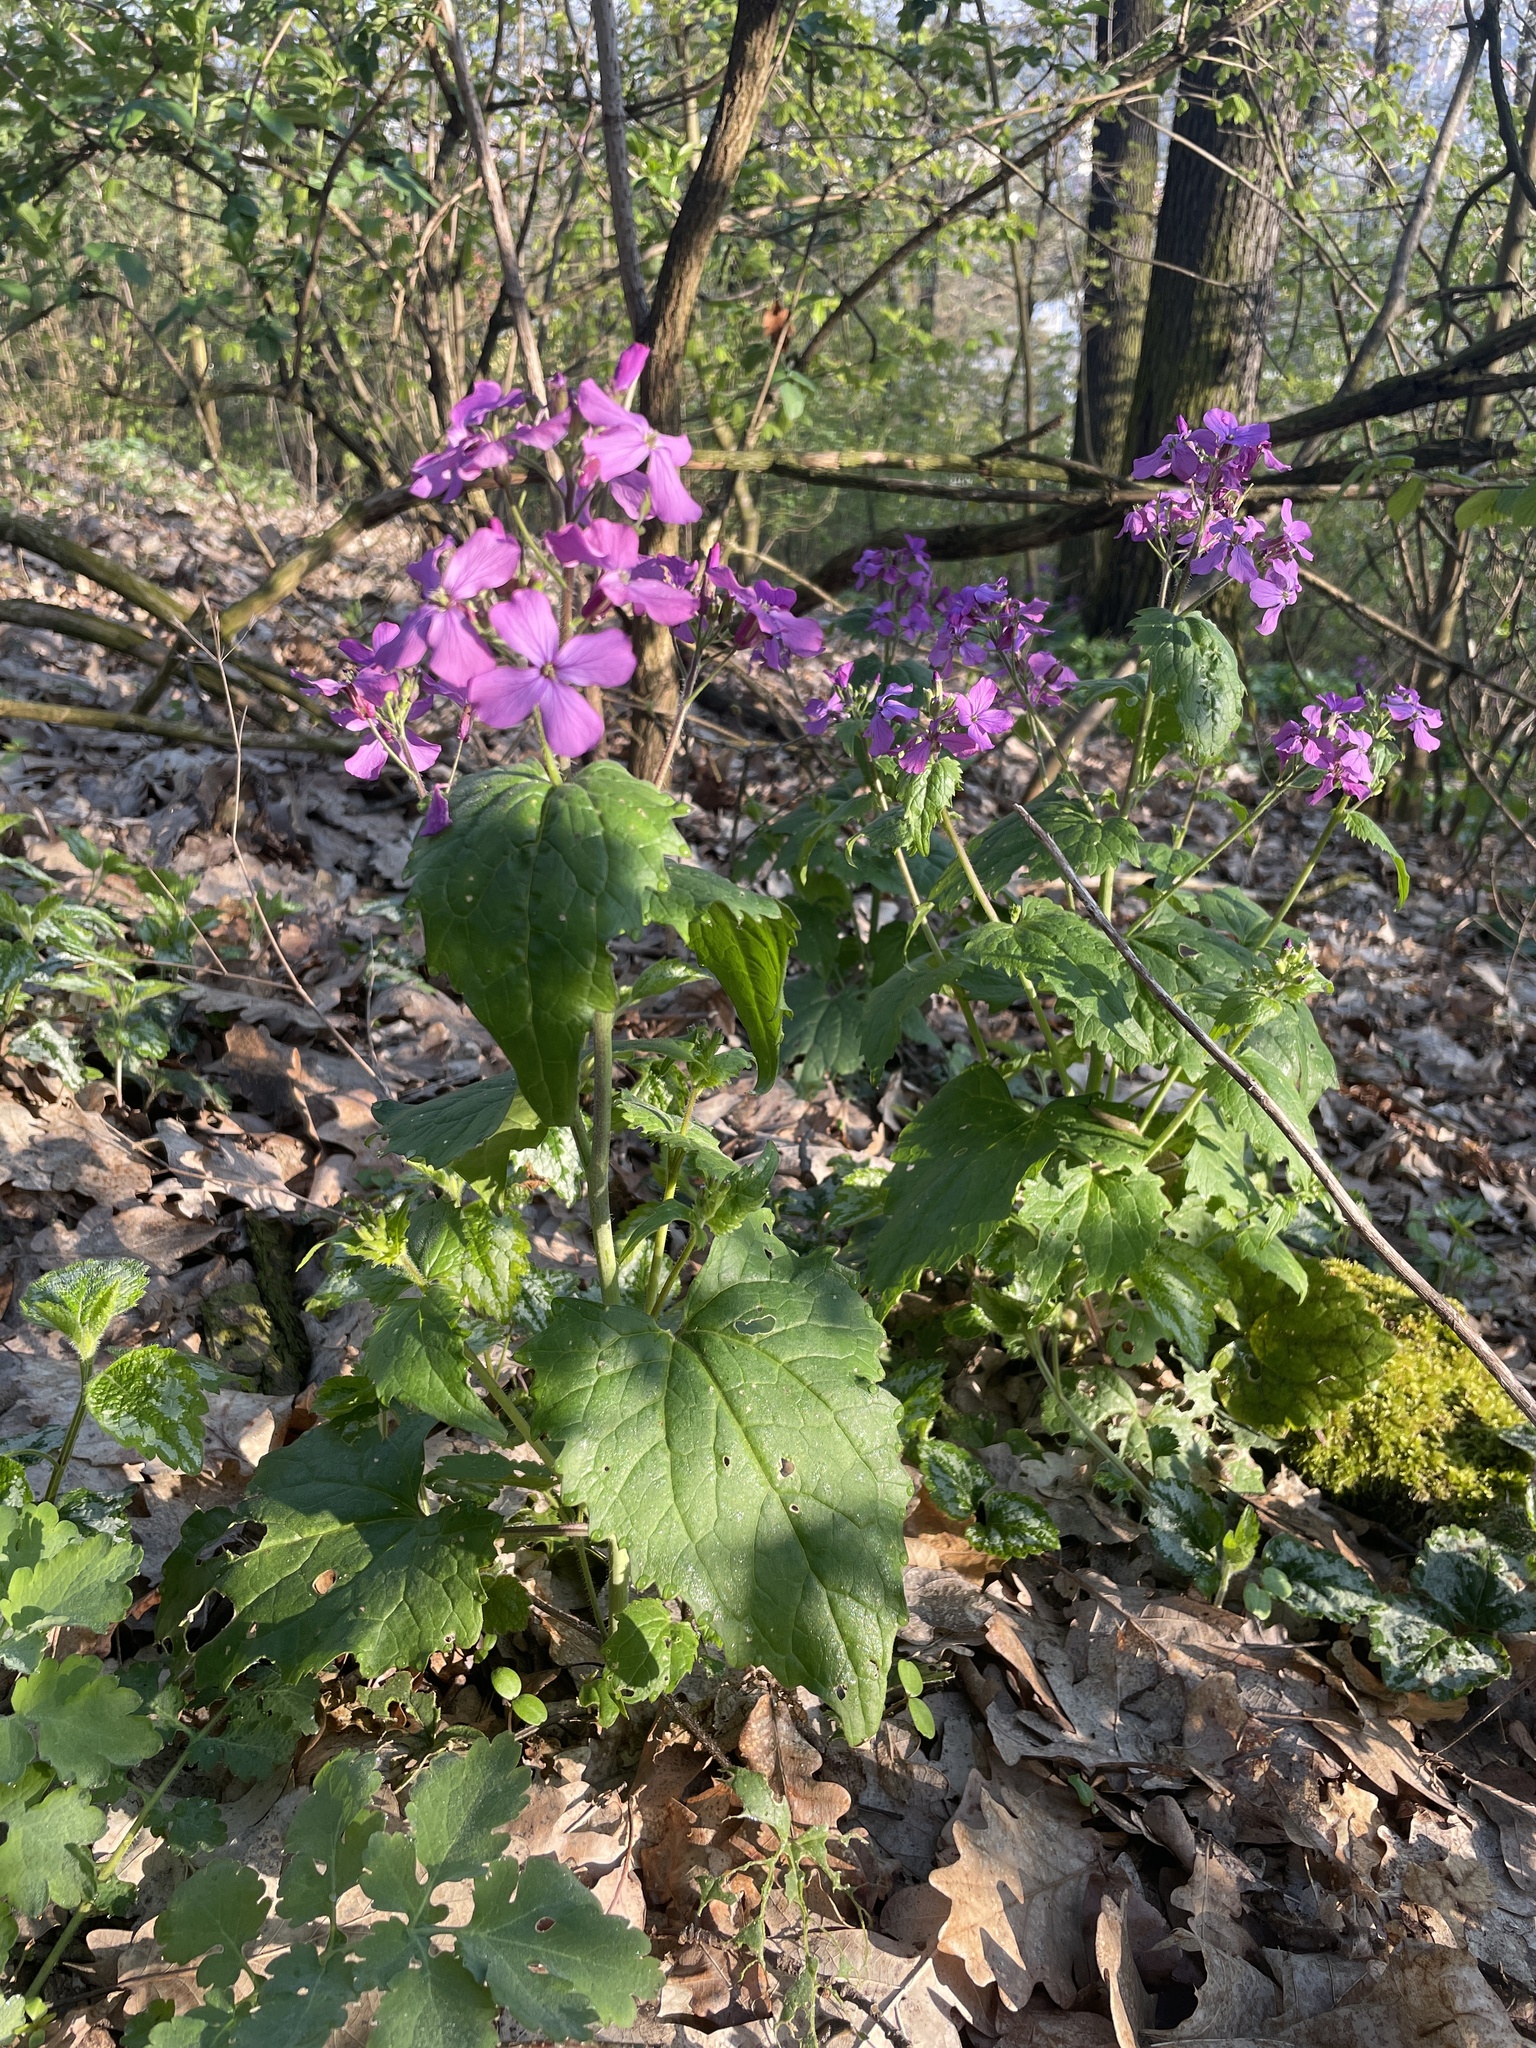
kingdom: Plantae
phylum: Tracheophyta
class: Magnoliopsida
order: Brassicales
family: Brassicaceae
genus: Lunaria
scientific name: Lunaria annua
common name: Honesty
